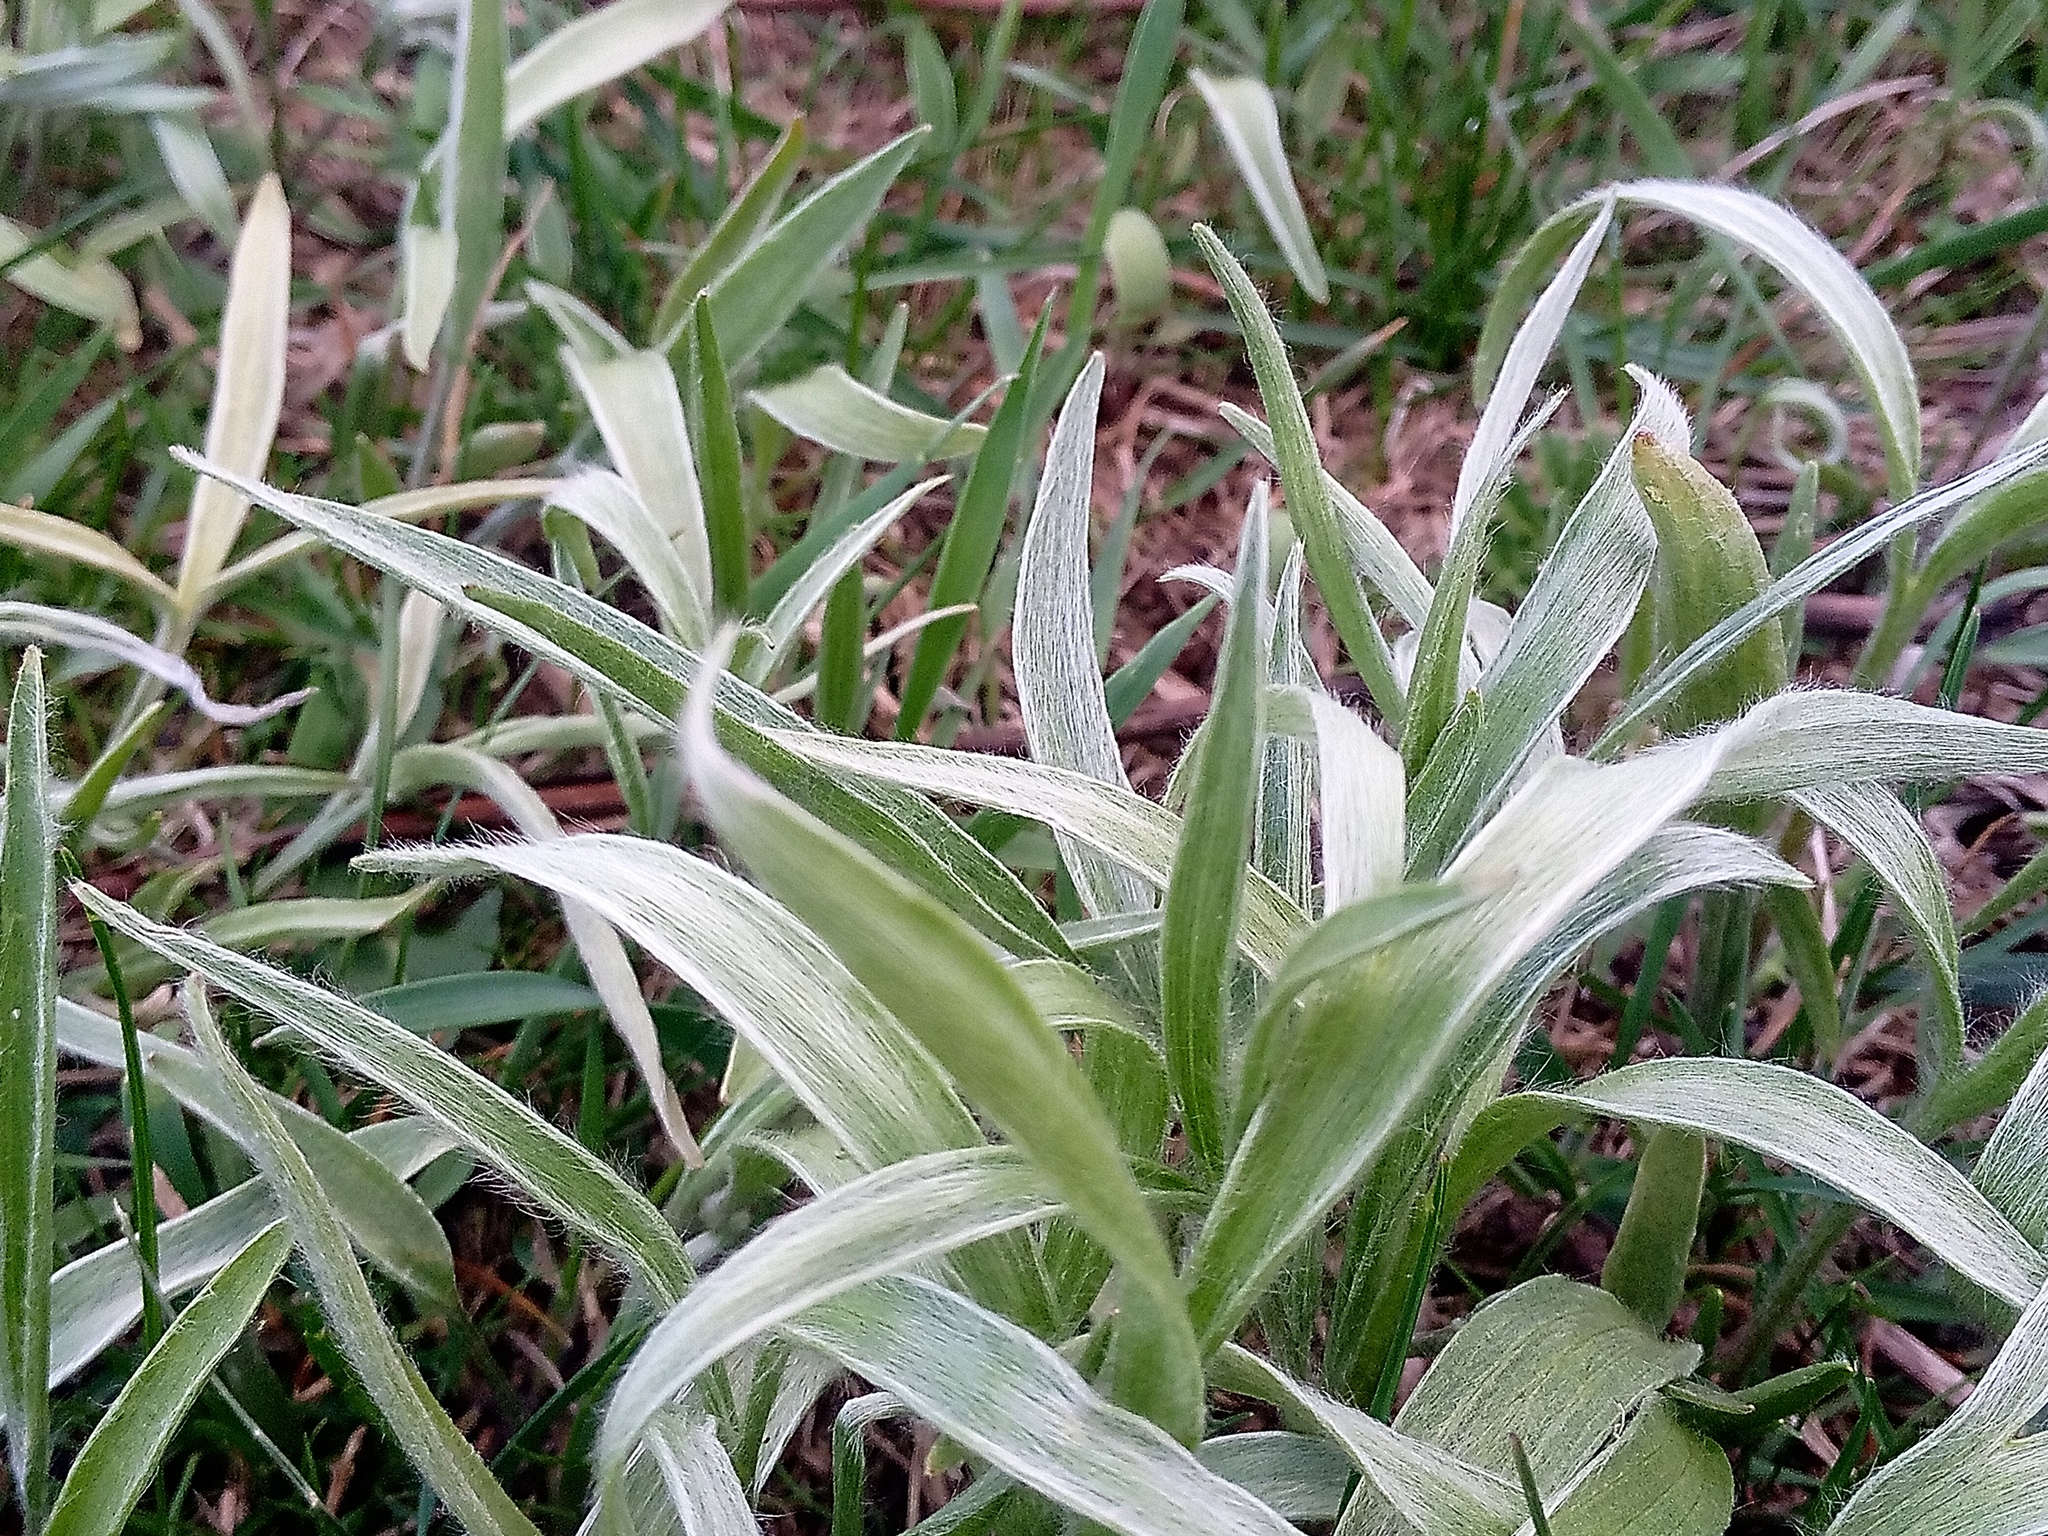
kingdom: Plantae
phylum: Tracheophyta
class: Magnoliopsida
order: Ranunculales
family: Ranunculaceae
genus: Ranunculus
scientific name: Ranunculus illyricus
